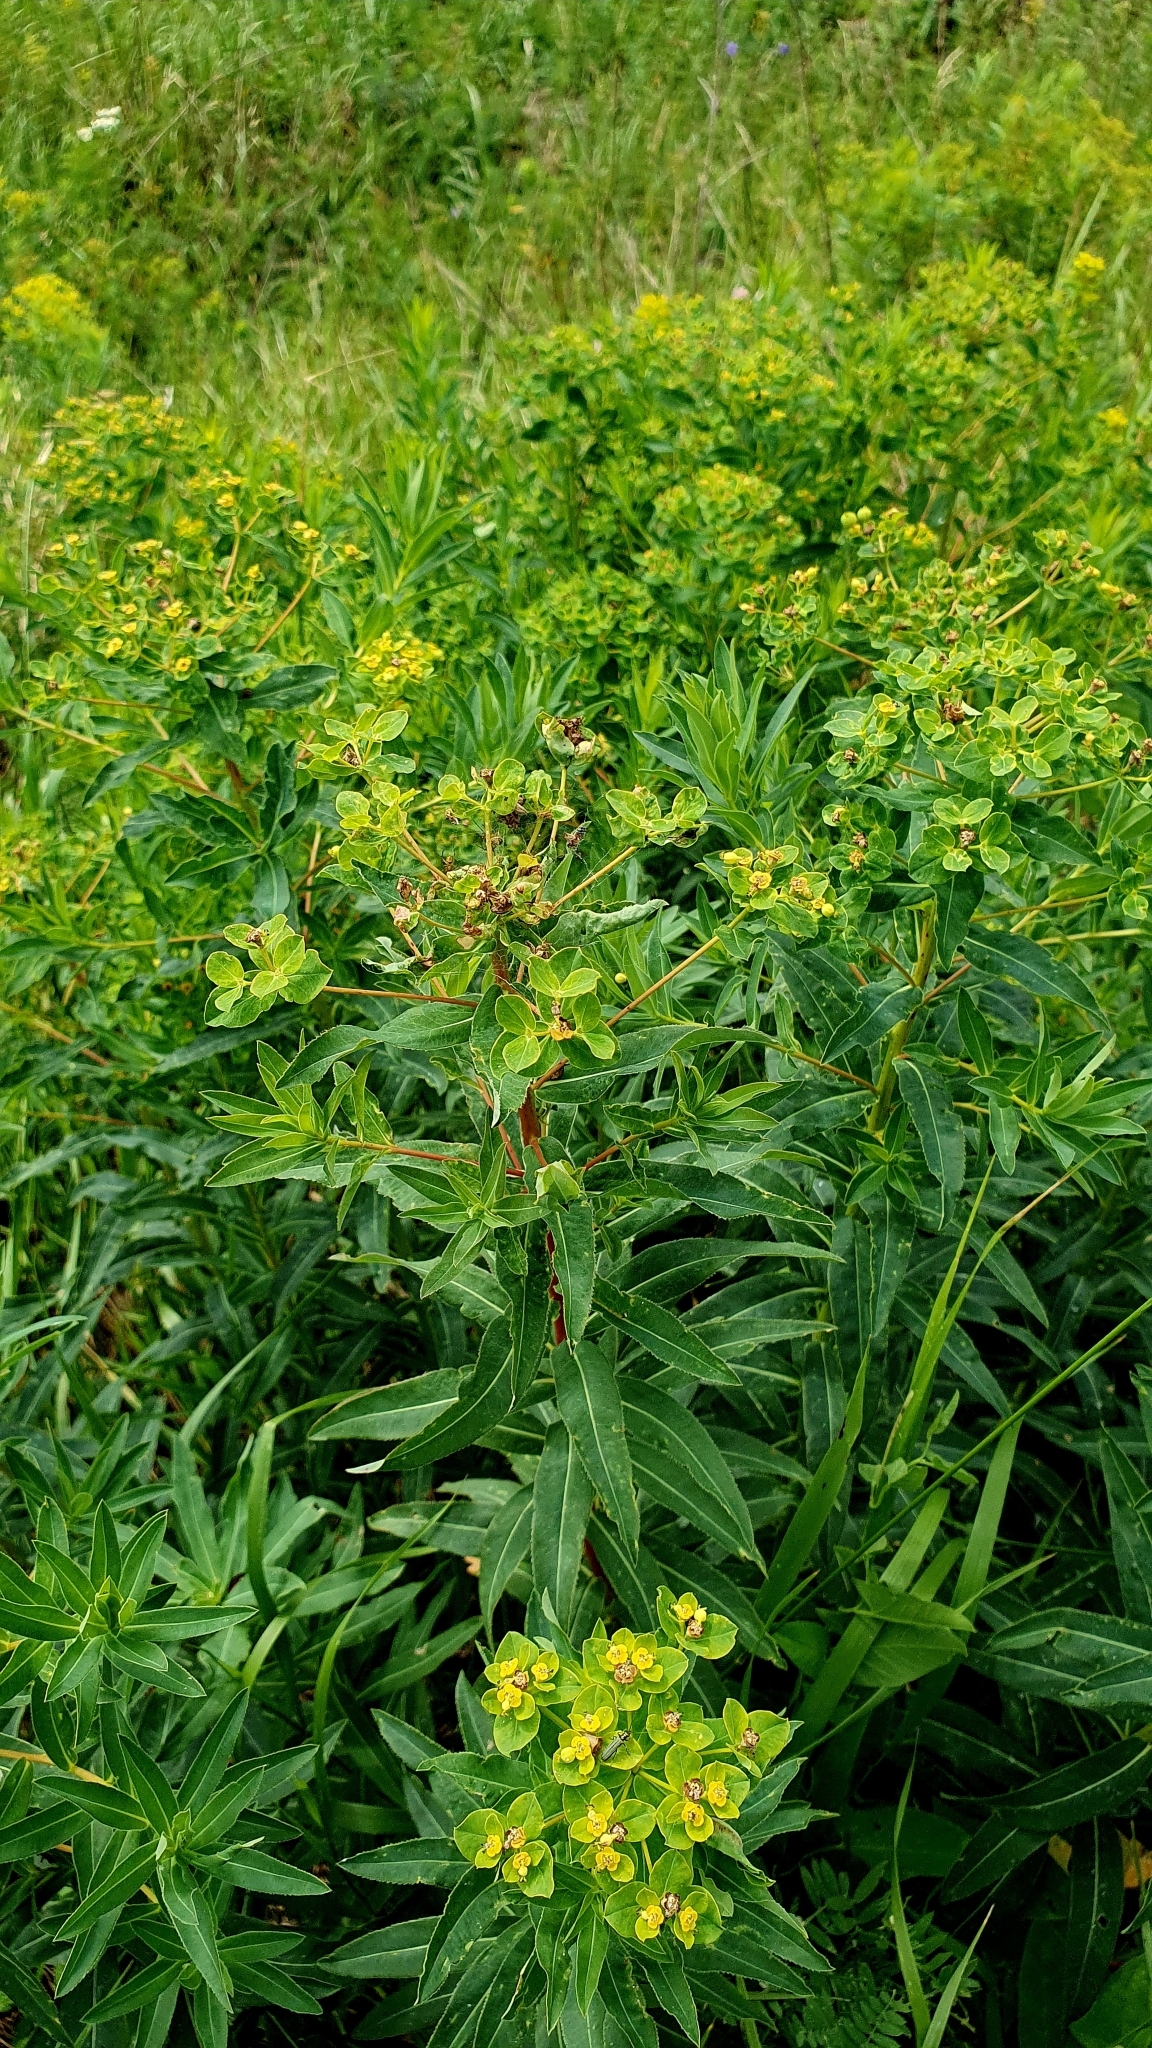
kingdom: Plantae
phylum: Tracheophyta
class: Magnoliopsida
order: Malpighiales
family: Euphorbiaceae
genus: Euphorbia
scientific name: Euphorbia semivillosa
